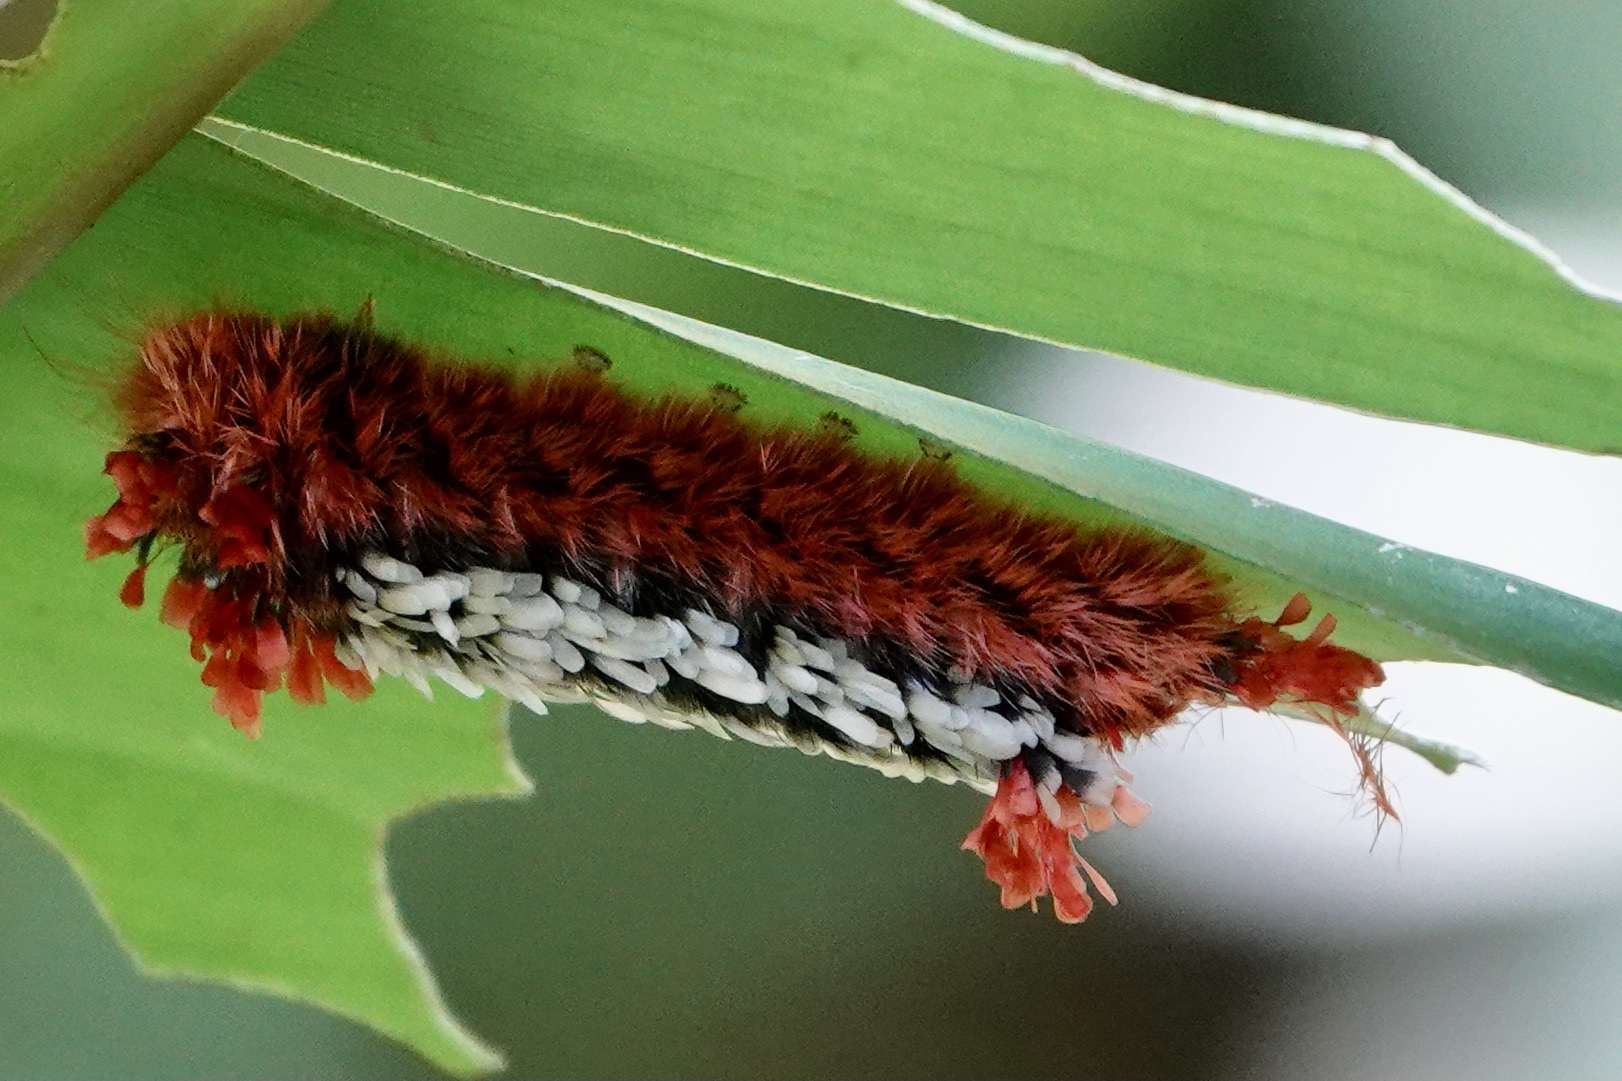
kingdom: Animalia
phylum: Arthropoda
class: Insecta
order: Lepidoptera
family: Bombycidae
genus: Prothysana
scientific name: Prothysana
